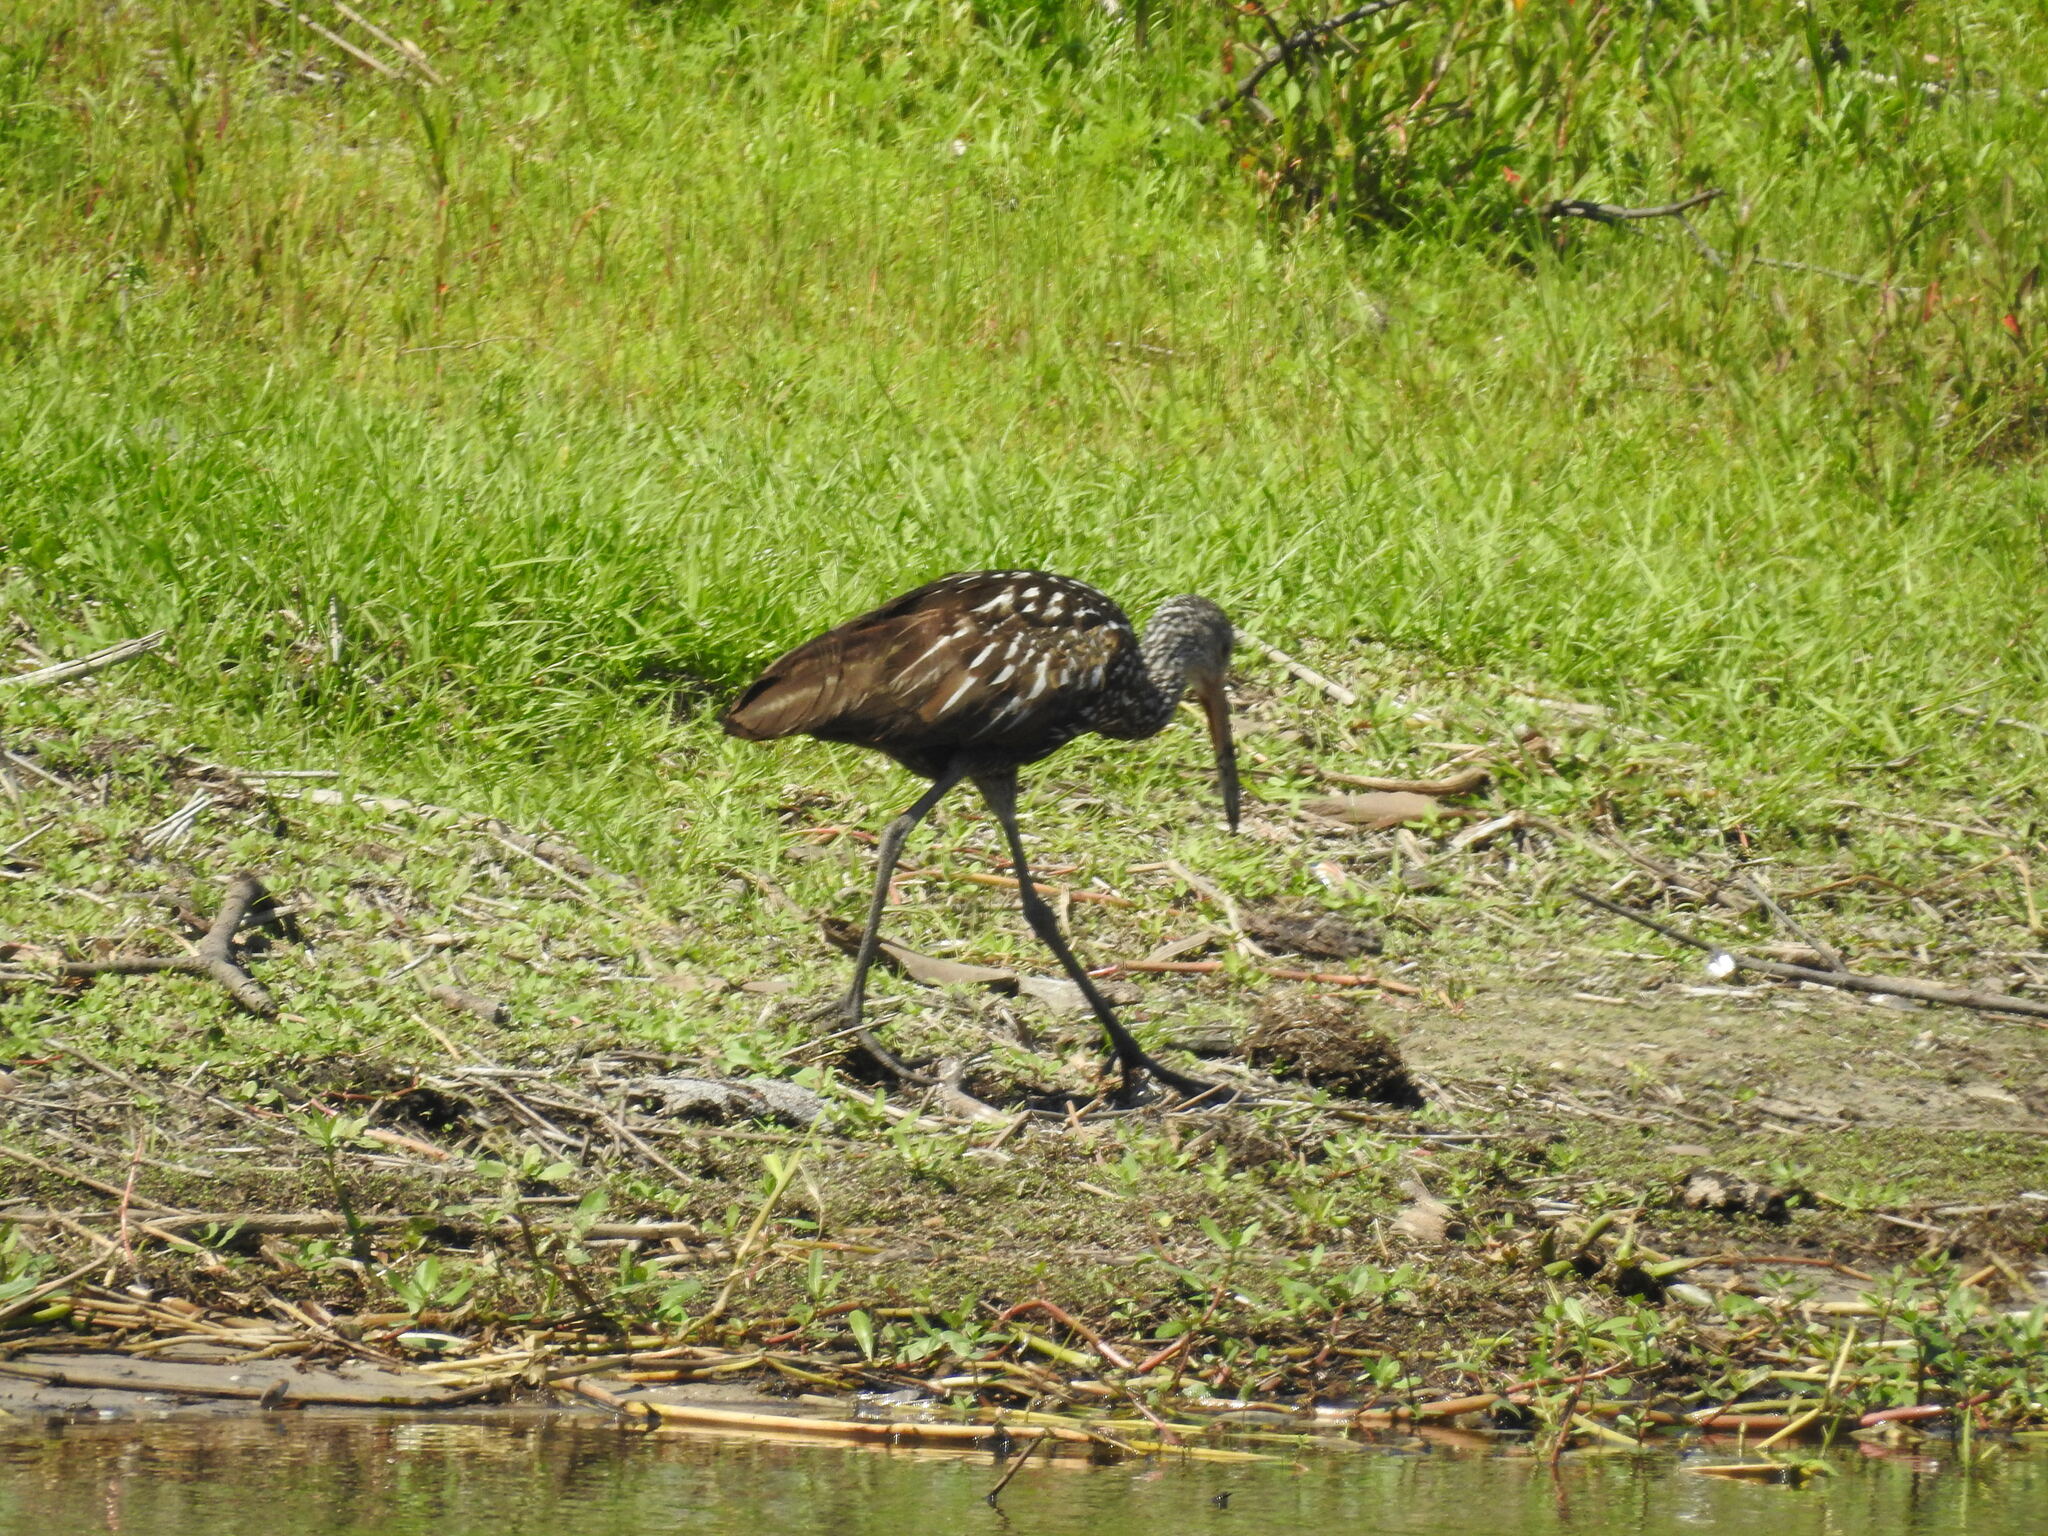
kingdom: Animalia
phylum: Chordata
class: Aves
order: Gruiformes
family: Aramidae
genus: Aramus
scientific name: Aramus guarauna
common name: Limpkin
